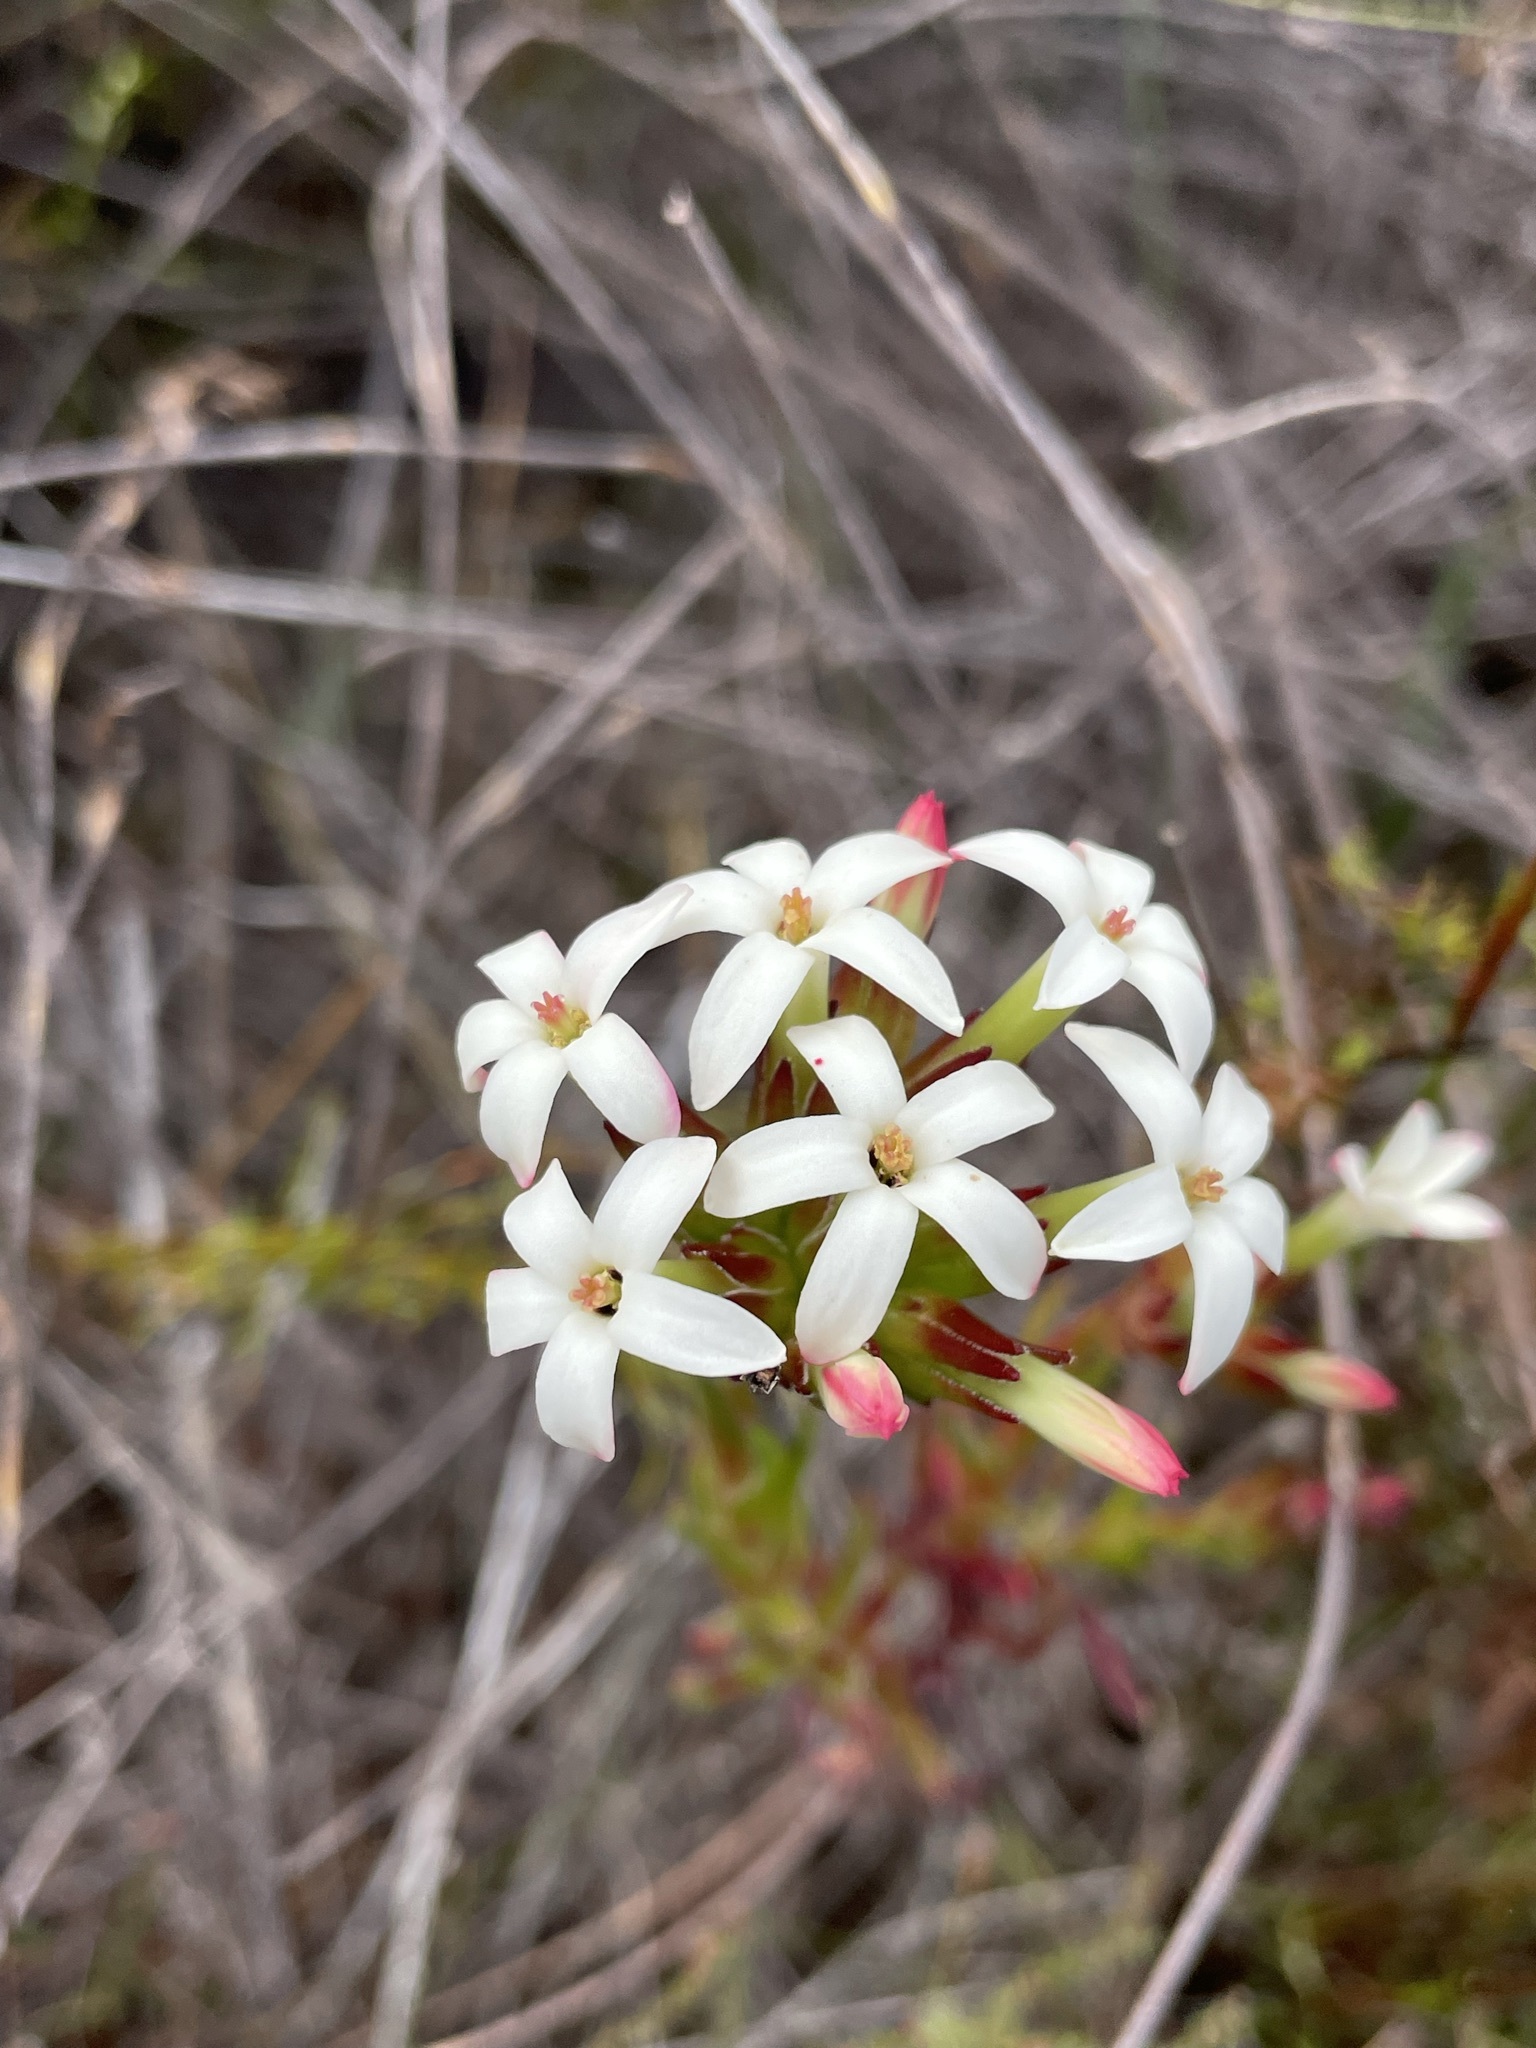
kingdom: Plantae
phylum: Tracheophyta
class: Magnoliopsida
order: Saxifragales
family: Crassulaceae
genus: Crassula
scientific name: Crassula fascicularis
